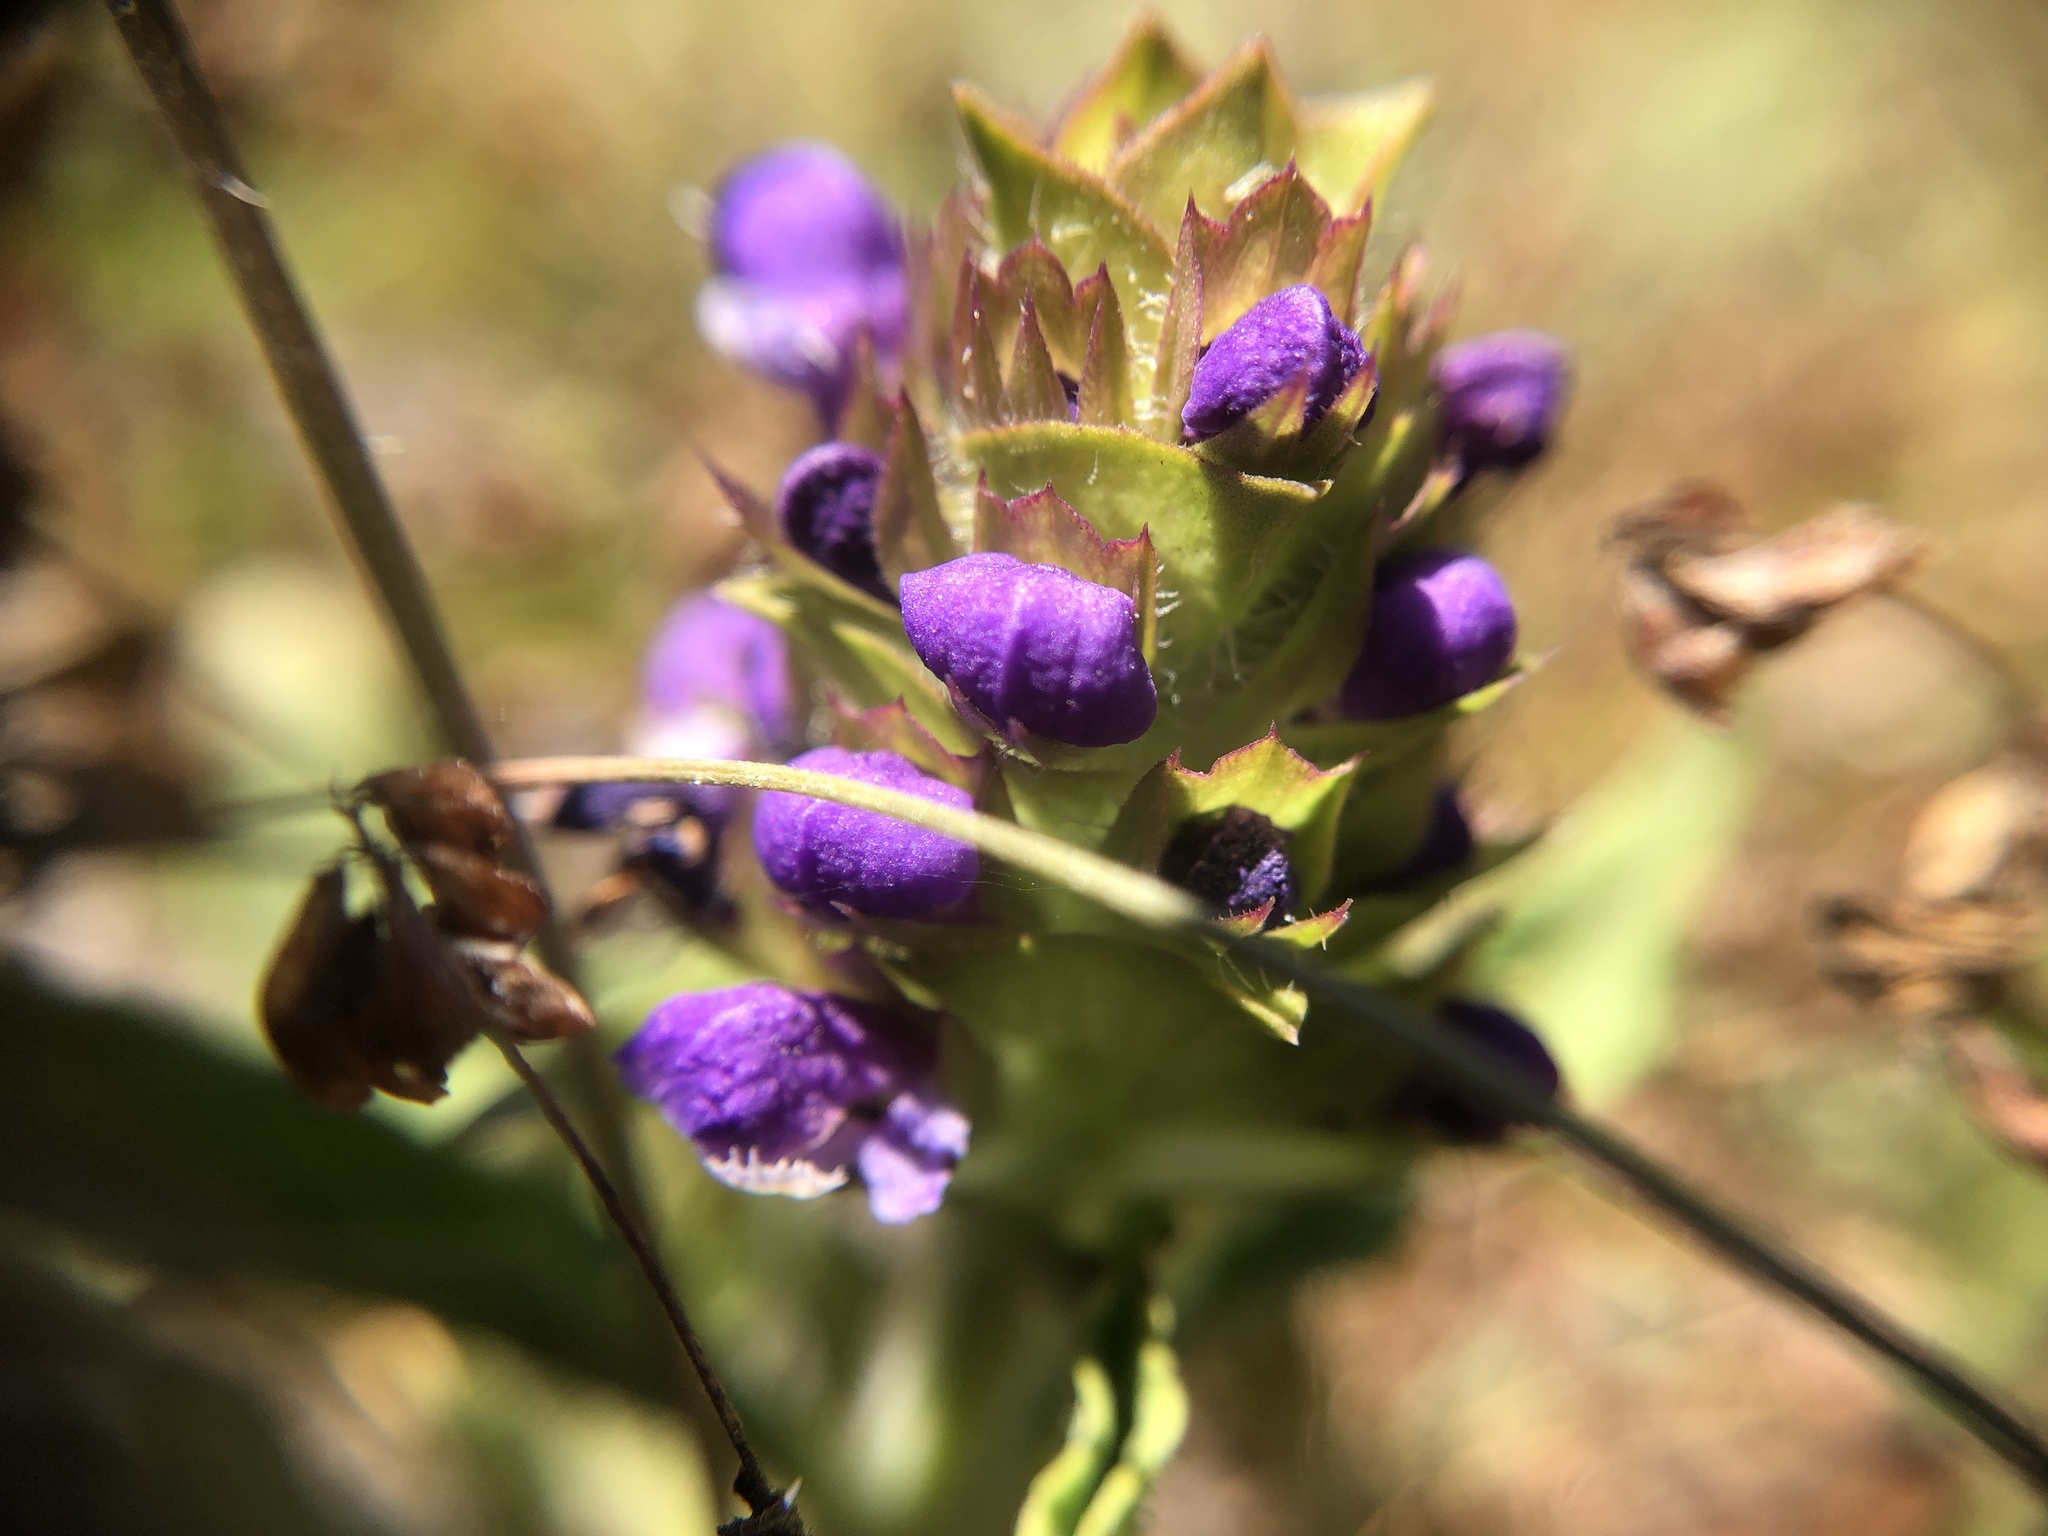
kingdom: Plantae
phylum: Tracheophyta
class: Magnoliopsida
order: Lamiales
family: Lamiaceae
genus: Prunella
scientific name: Prunella vulgaris
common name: Heal-all
